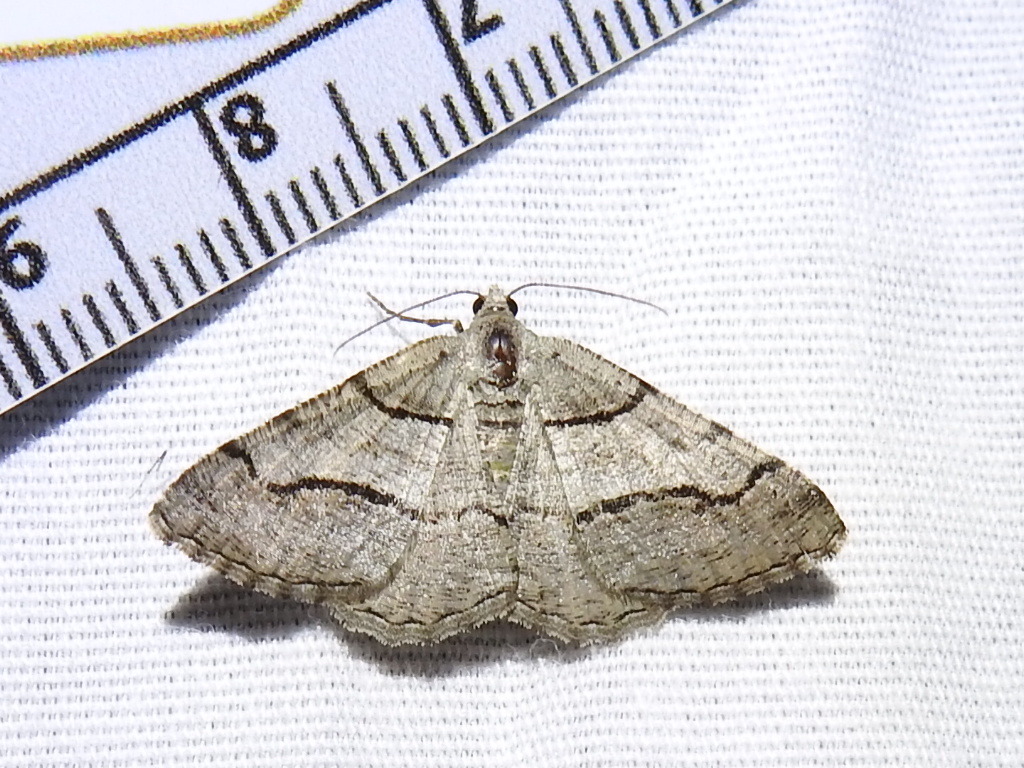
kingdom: Animalia
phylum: Arthropoda
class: Insecta
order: Lepidoptera
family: Geometridae
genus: Digrammia
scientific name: Digrammia continuata
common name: Curve-lined angle
